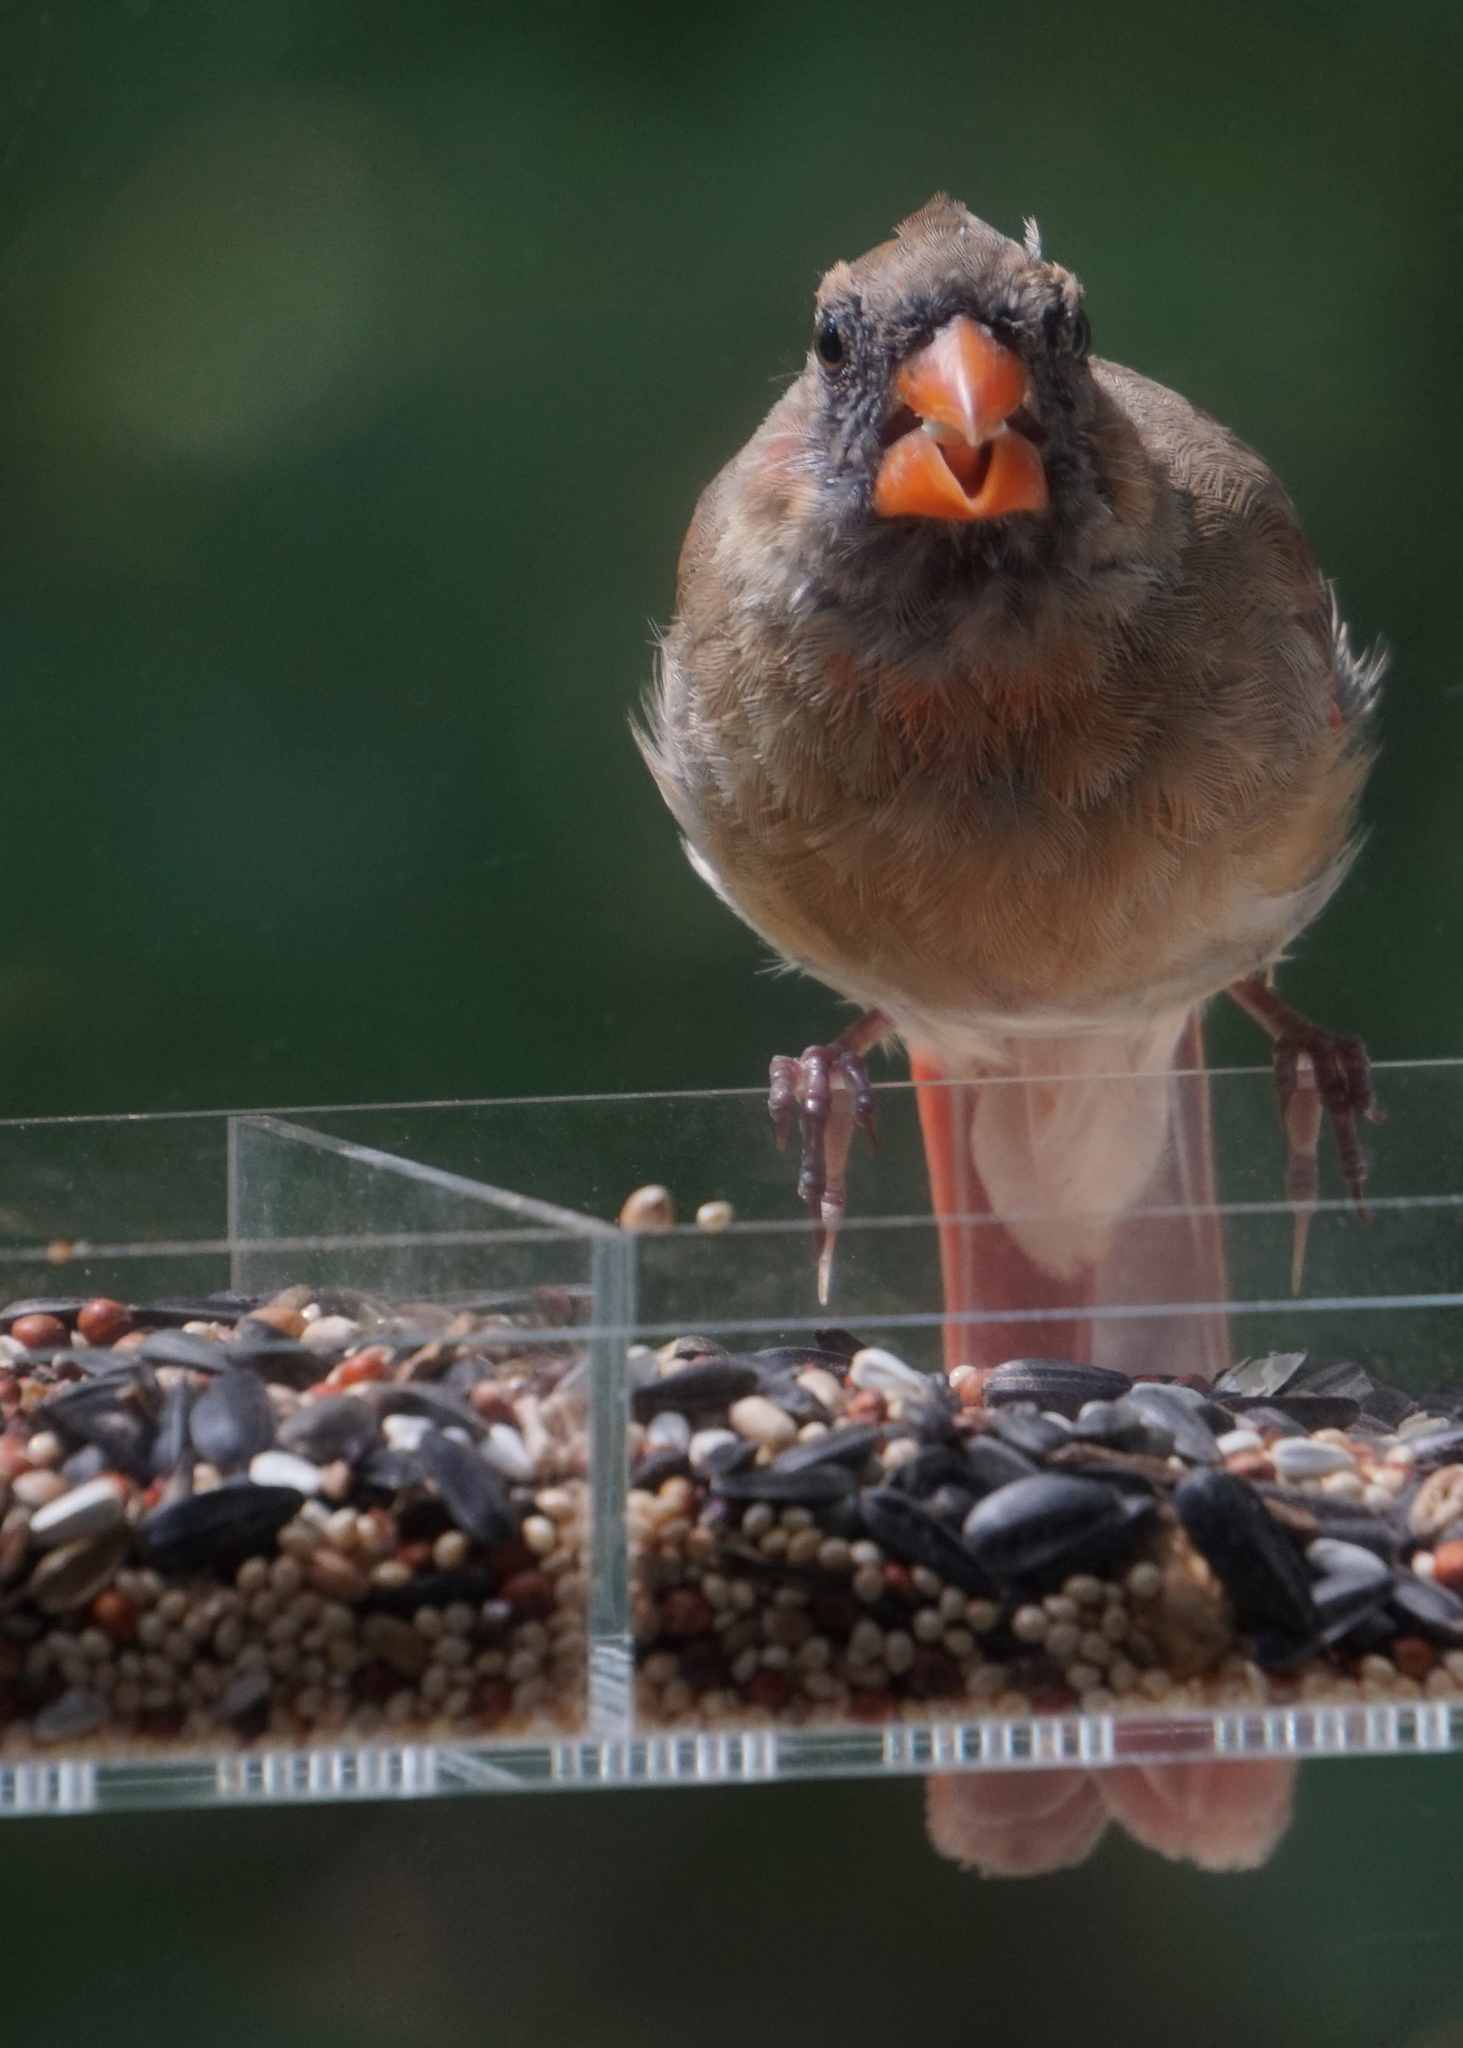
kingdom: Animalia
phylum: Chordata
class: Aves
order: Passeriformes
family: Cardinalidae
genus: Cardinalis
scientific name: Cardinalis cardinalis
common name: Northern cardinal
